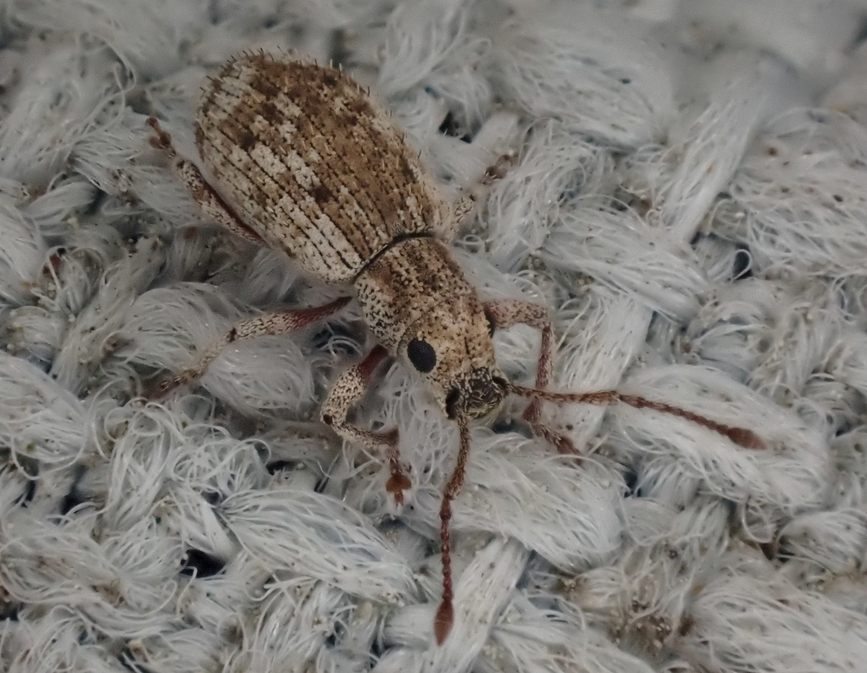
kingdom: Animalia
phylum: Arthropoda
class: Insecta
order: Coleoptera
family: Curculionidae
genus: Pseudoedophrys
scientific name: Pseudoedophrys hilleri
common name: Weevil
